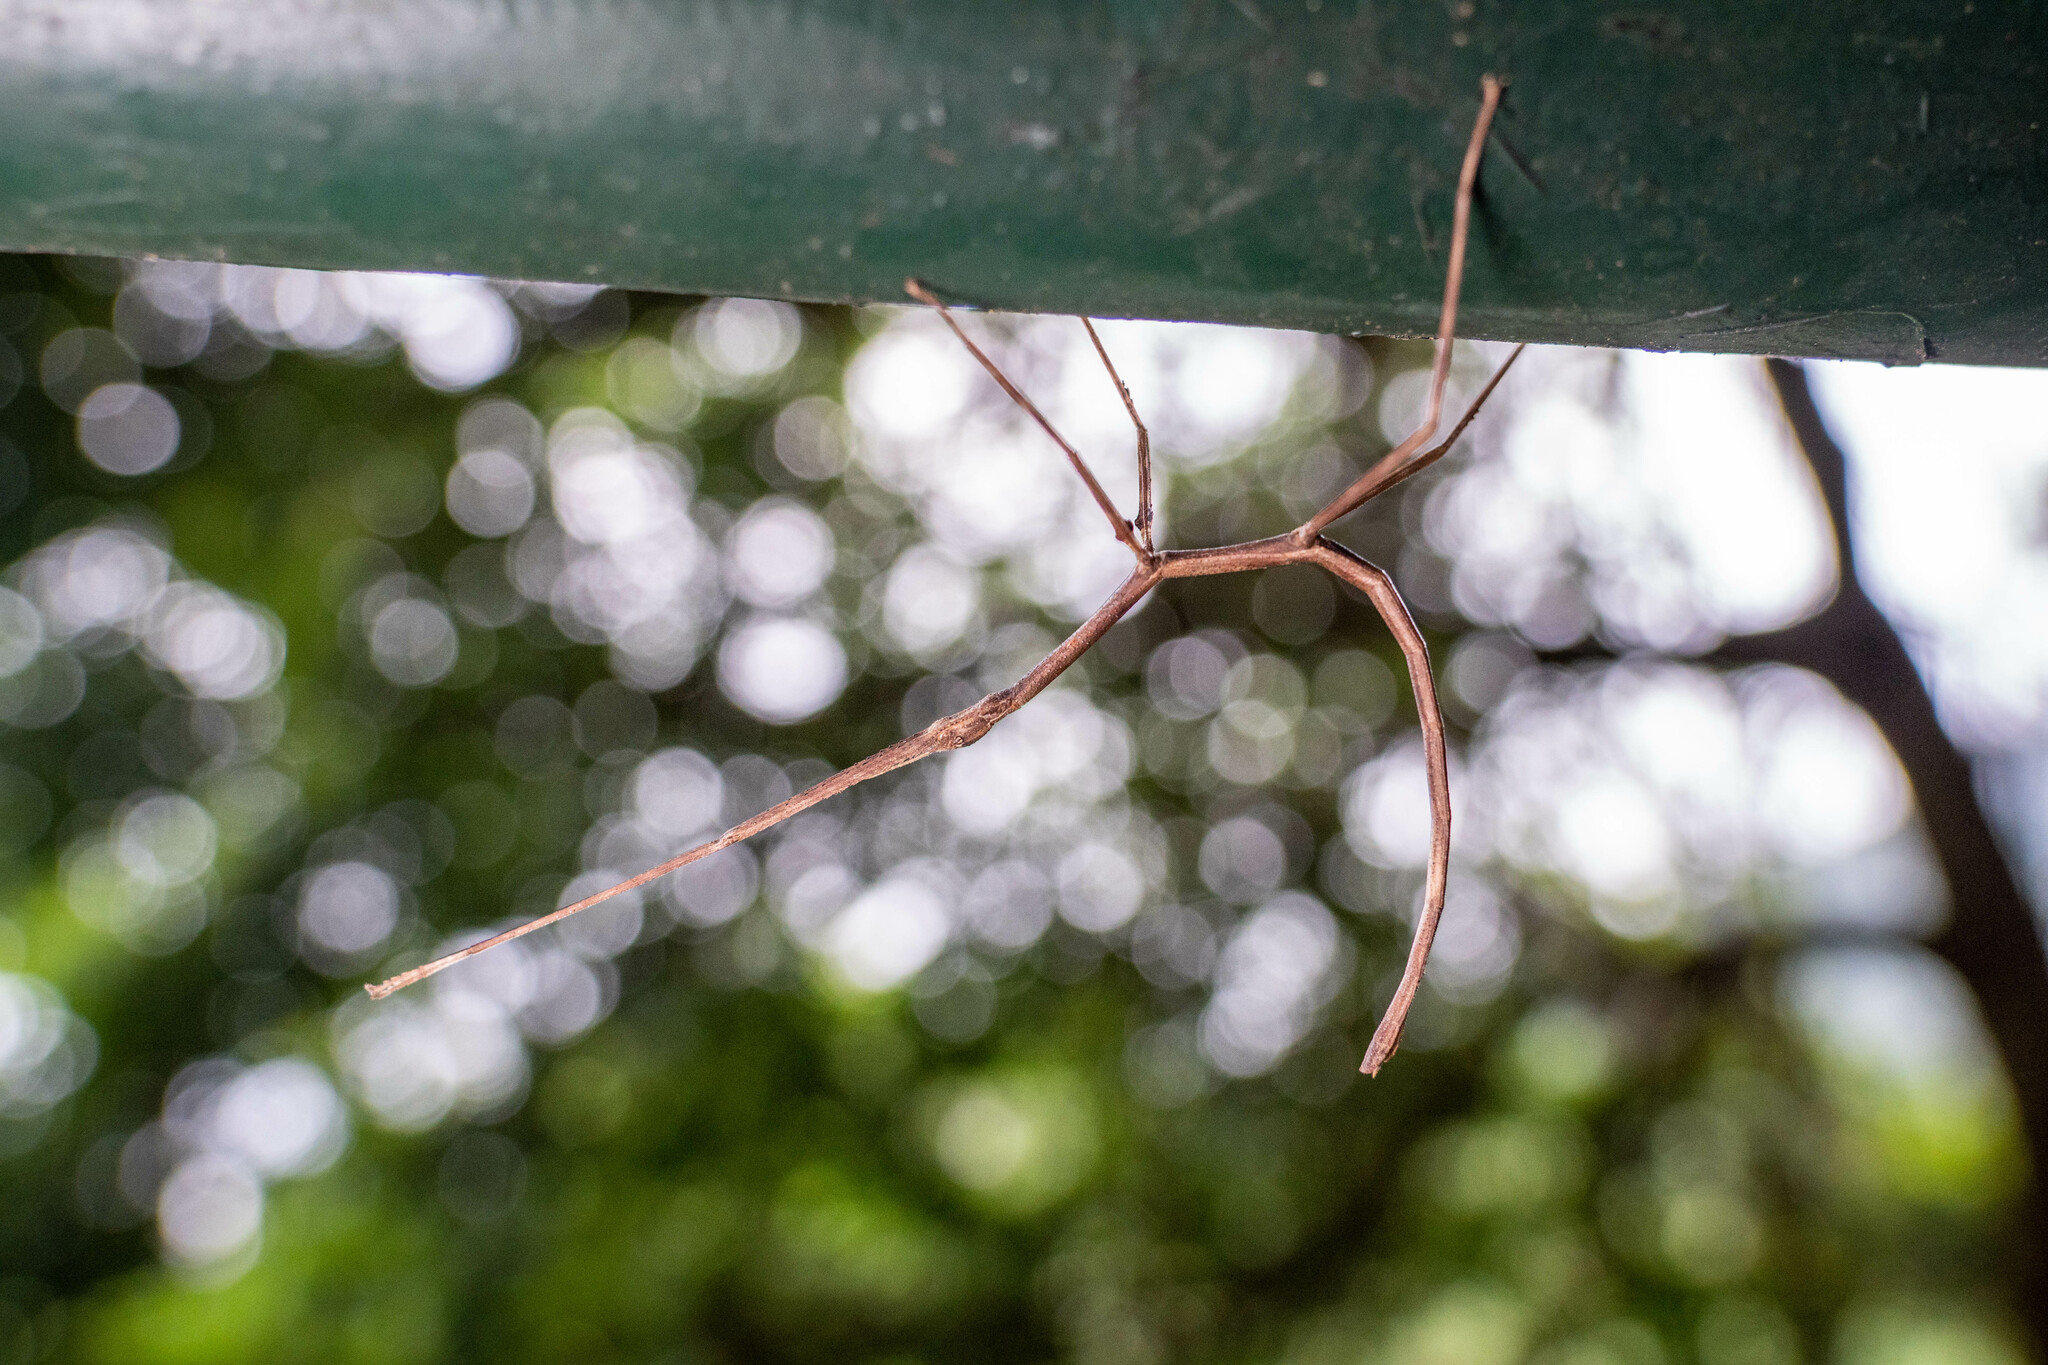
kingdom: Animalia
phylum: Arthropoda
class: Insecta
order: Phasmida
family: Phasmatidae
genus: Ramulus
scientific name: Ramulus rotundus
